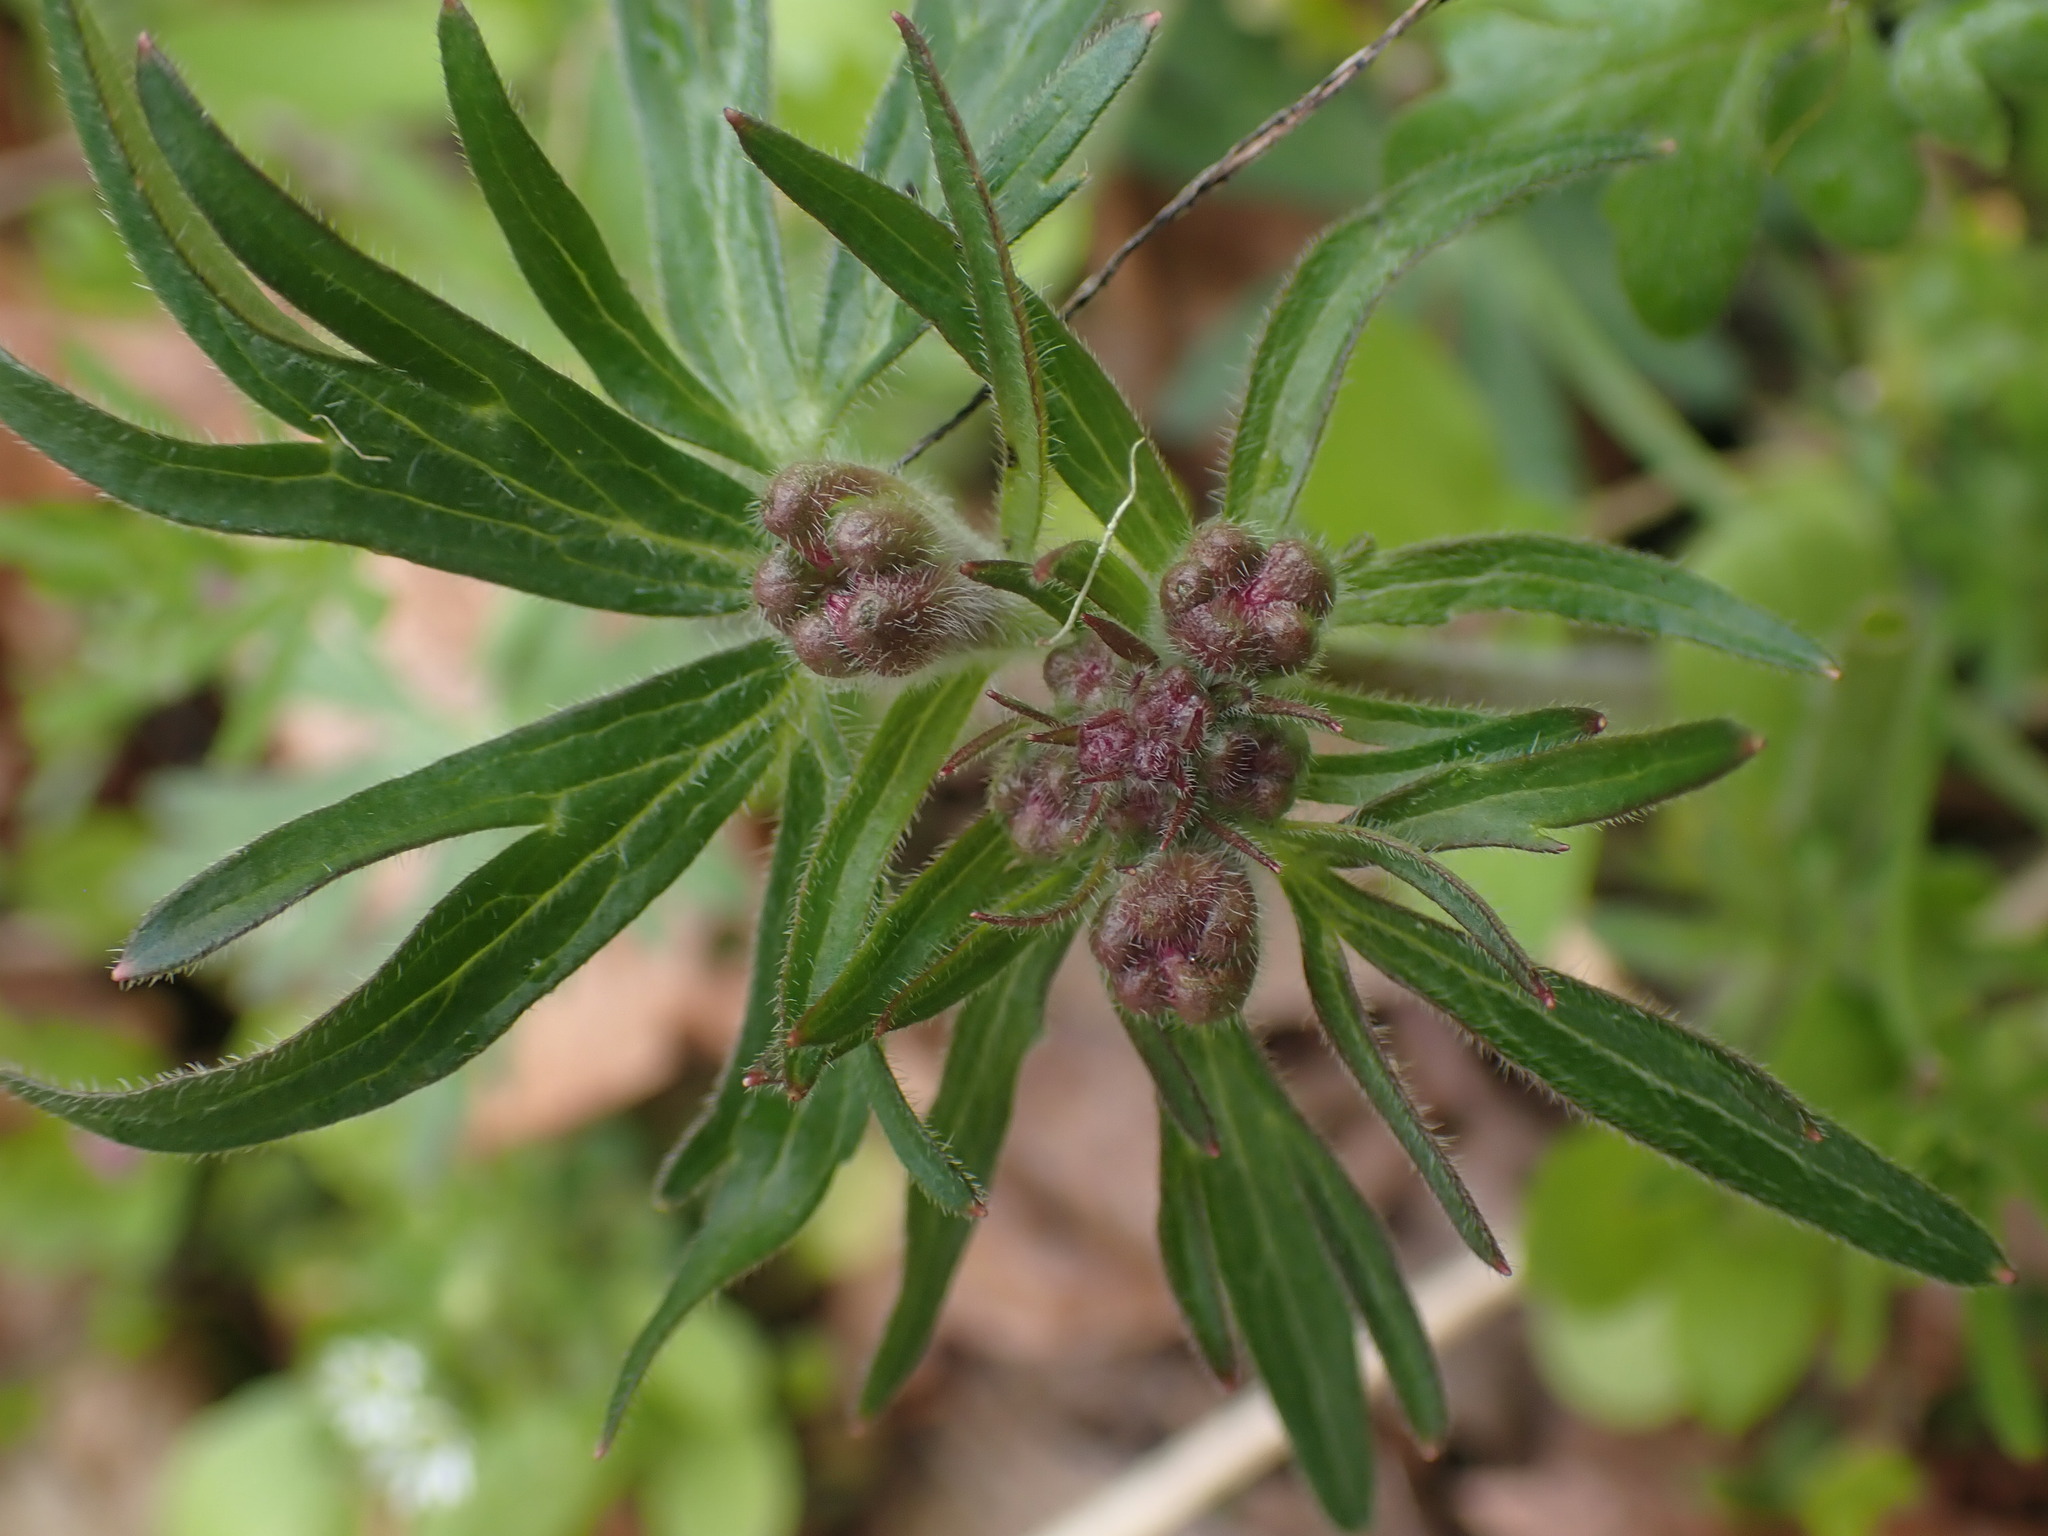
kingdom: Plantae
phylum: Tracheophyta
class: Magnoliopsida
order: Ranunculales
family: Ranunculaceae
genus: Delphinium
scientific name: Delphinium menziesii
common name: Menzies's larkspur
